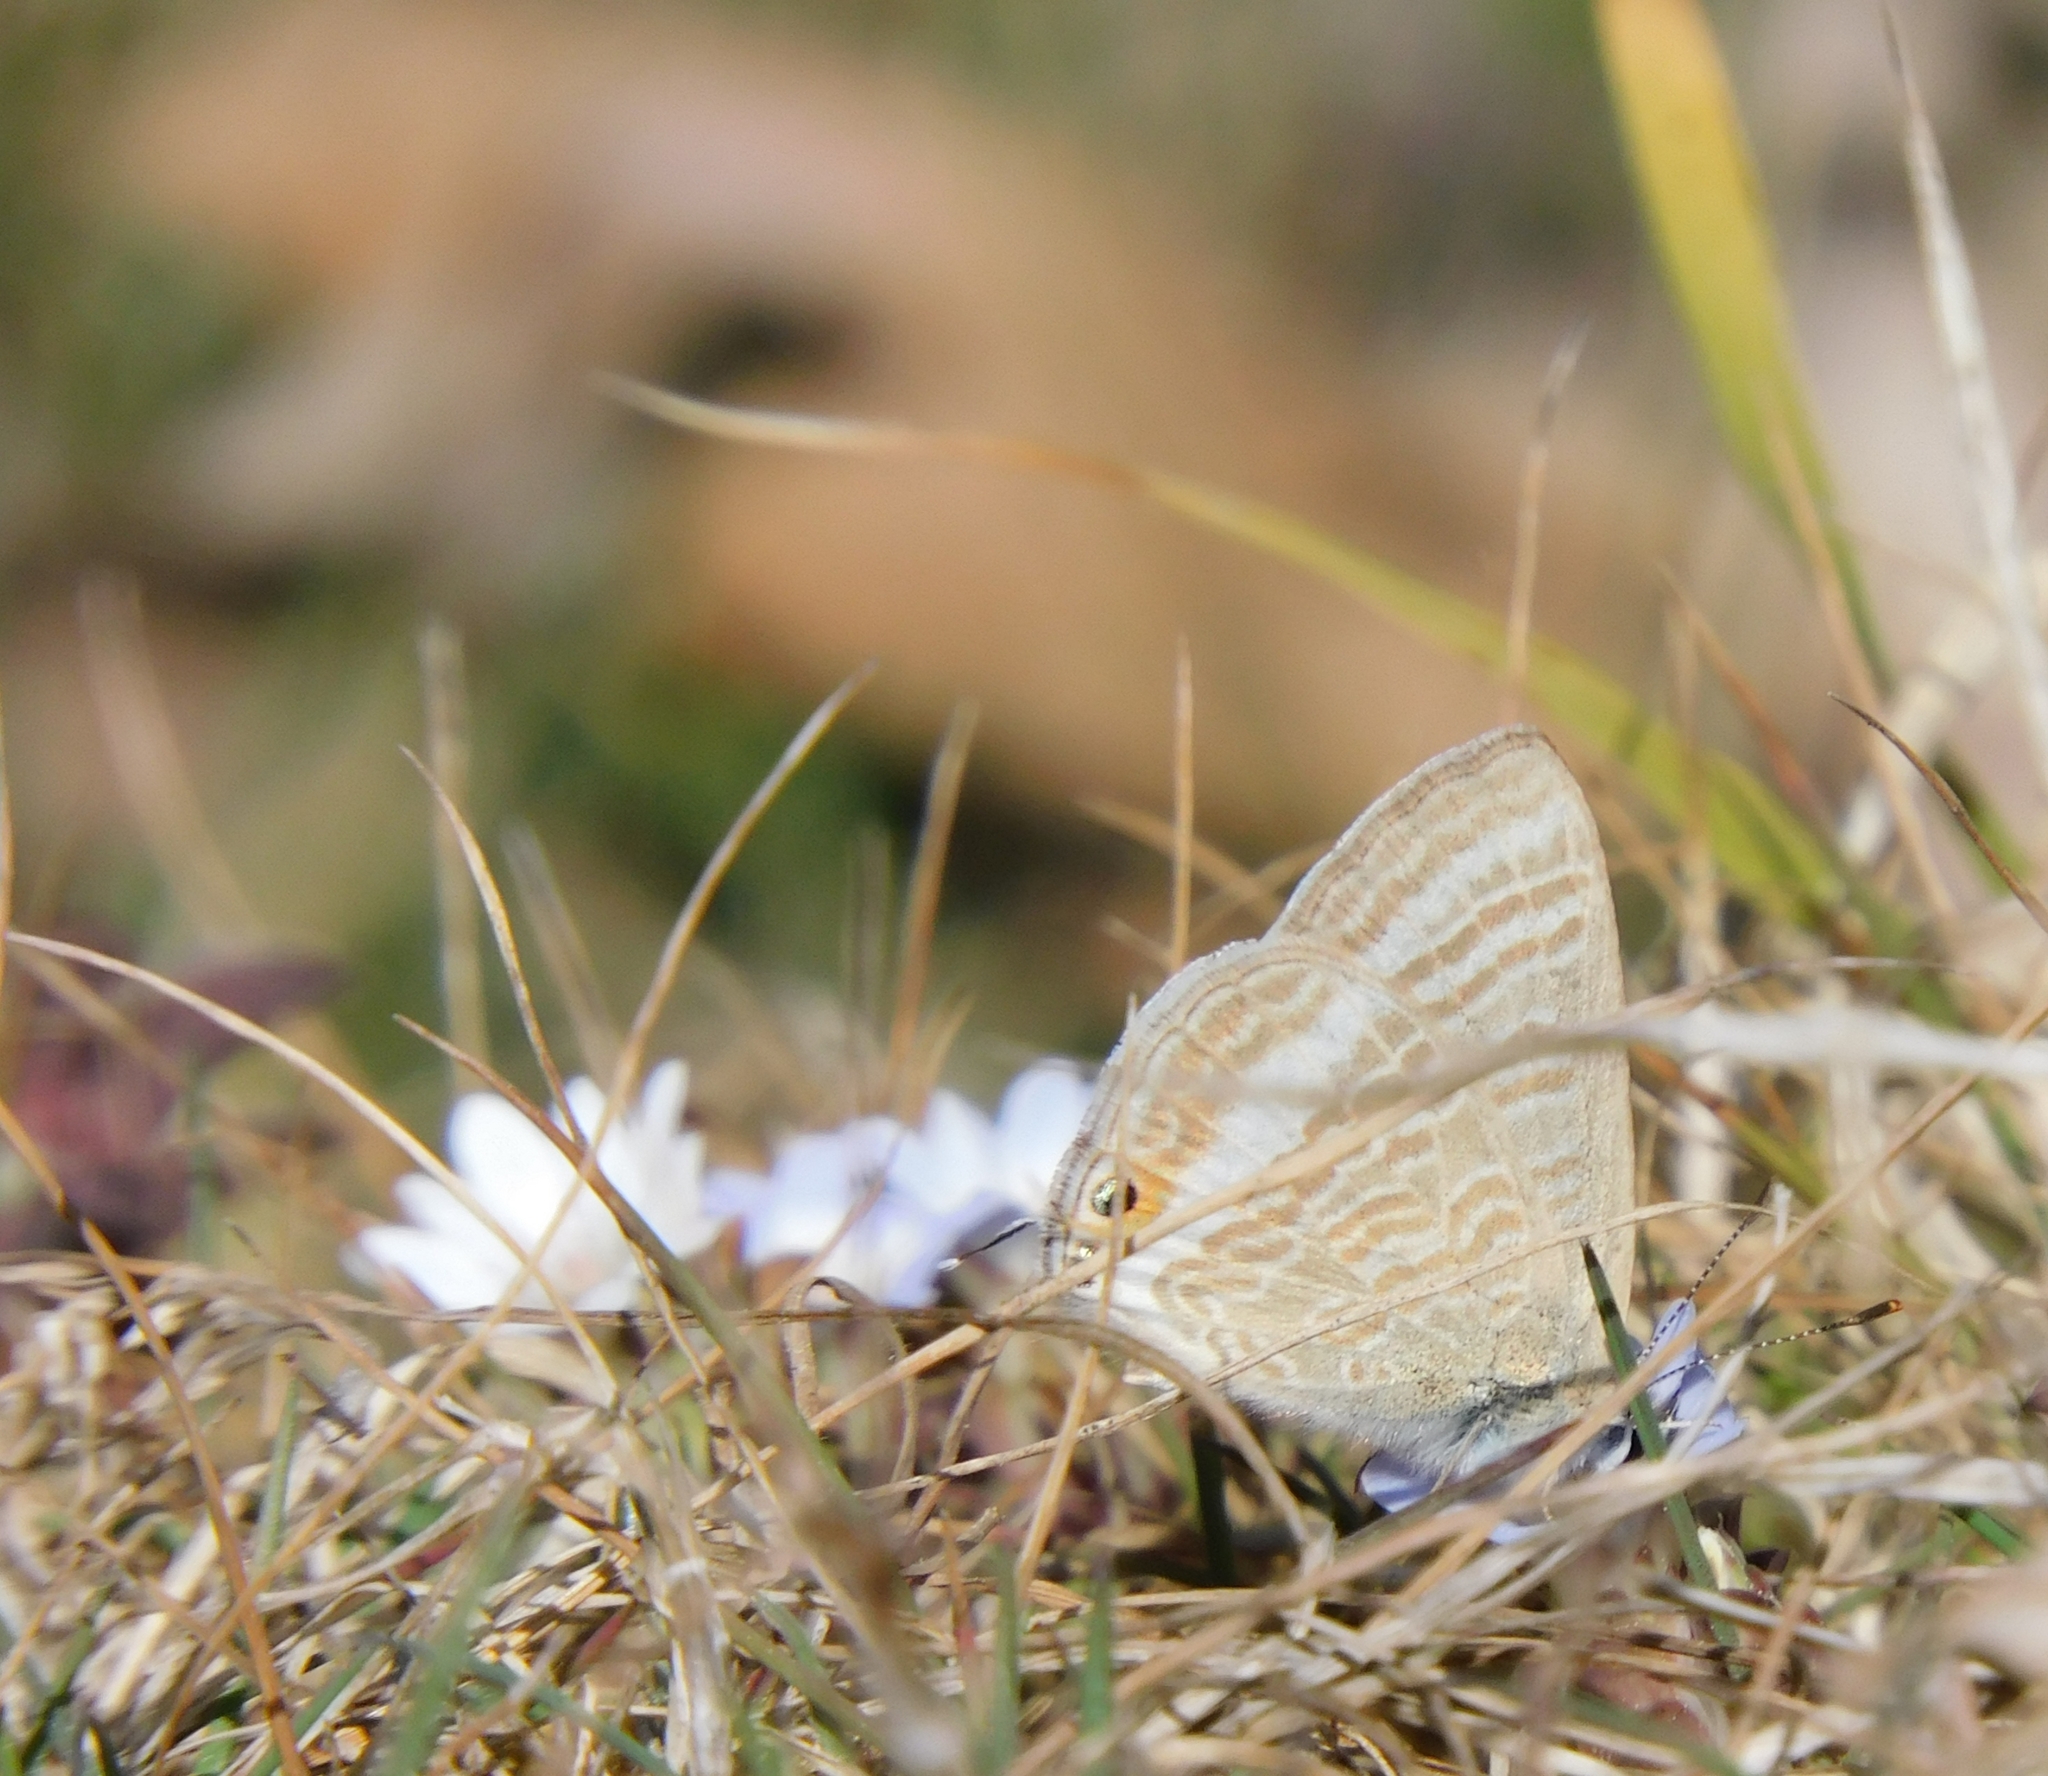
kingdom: Animalia
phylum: Arthropoda
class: Insecta
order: Lepidoptera
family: Lycaenidae
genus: Lampides
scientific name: Lampides boeticus
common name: Long-tailed blue
